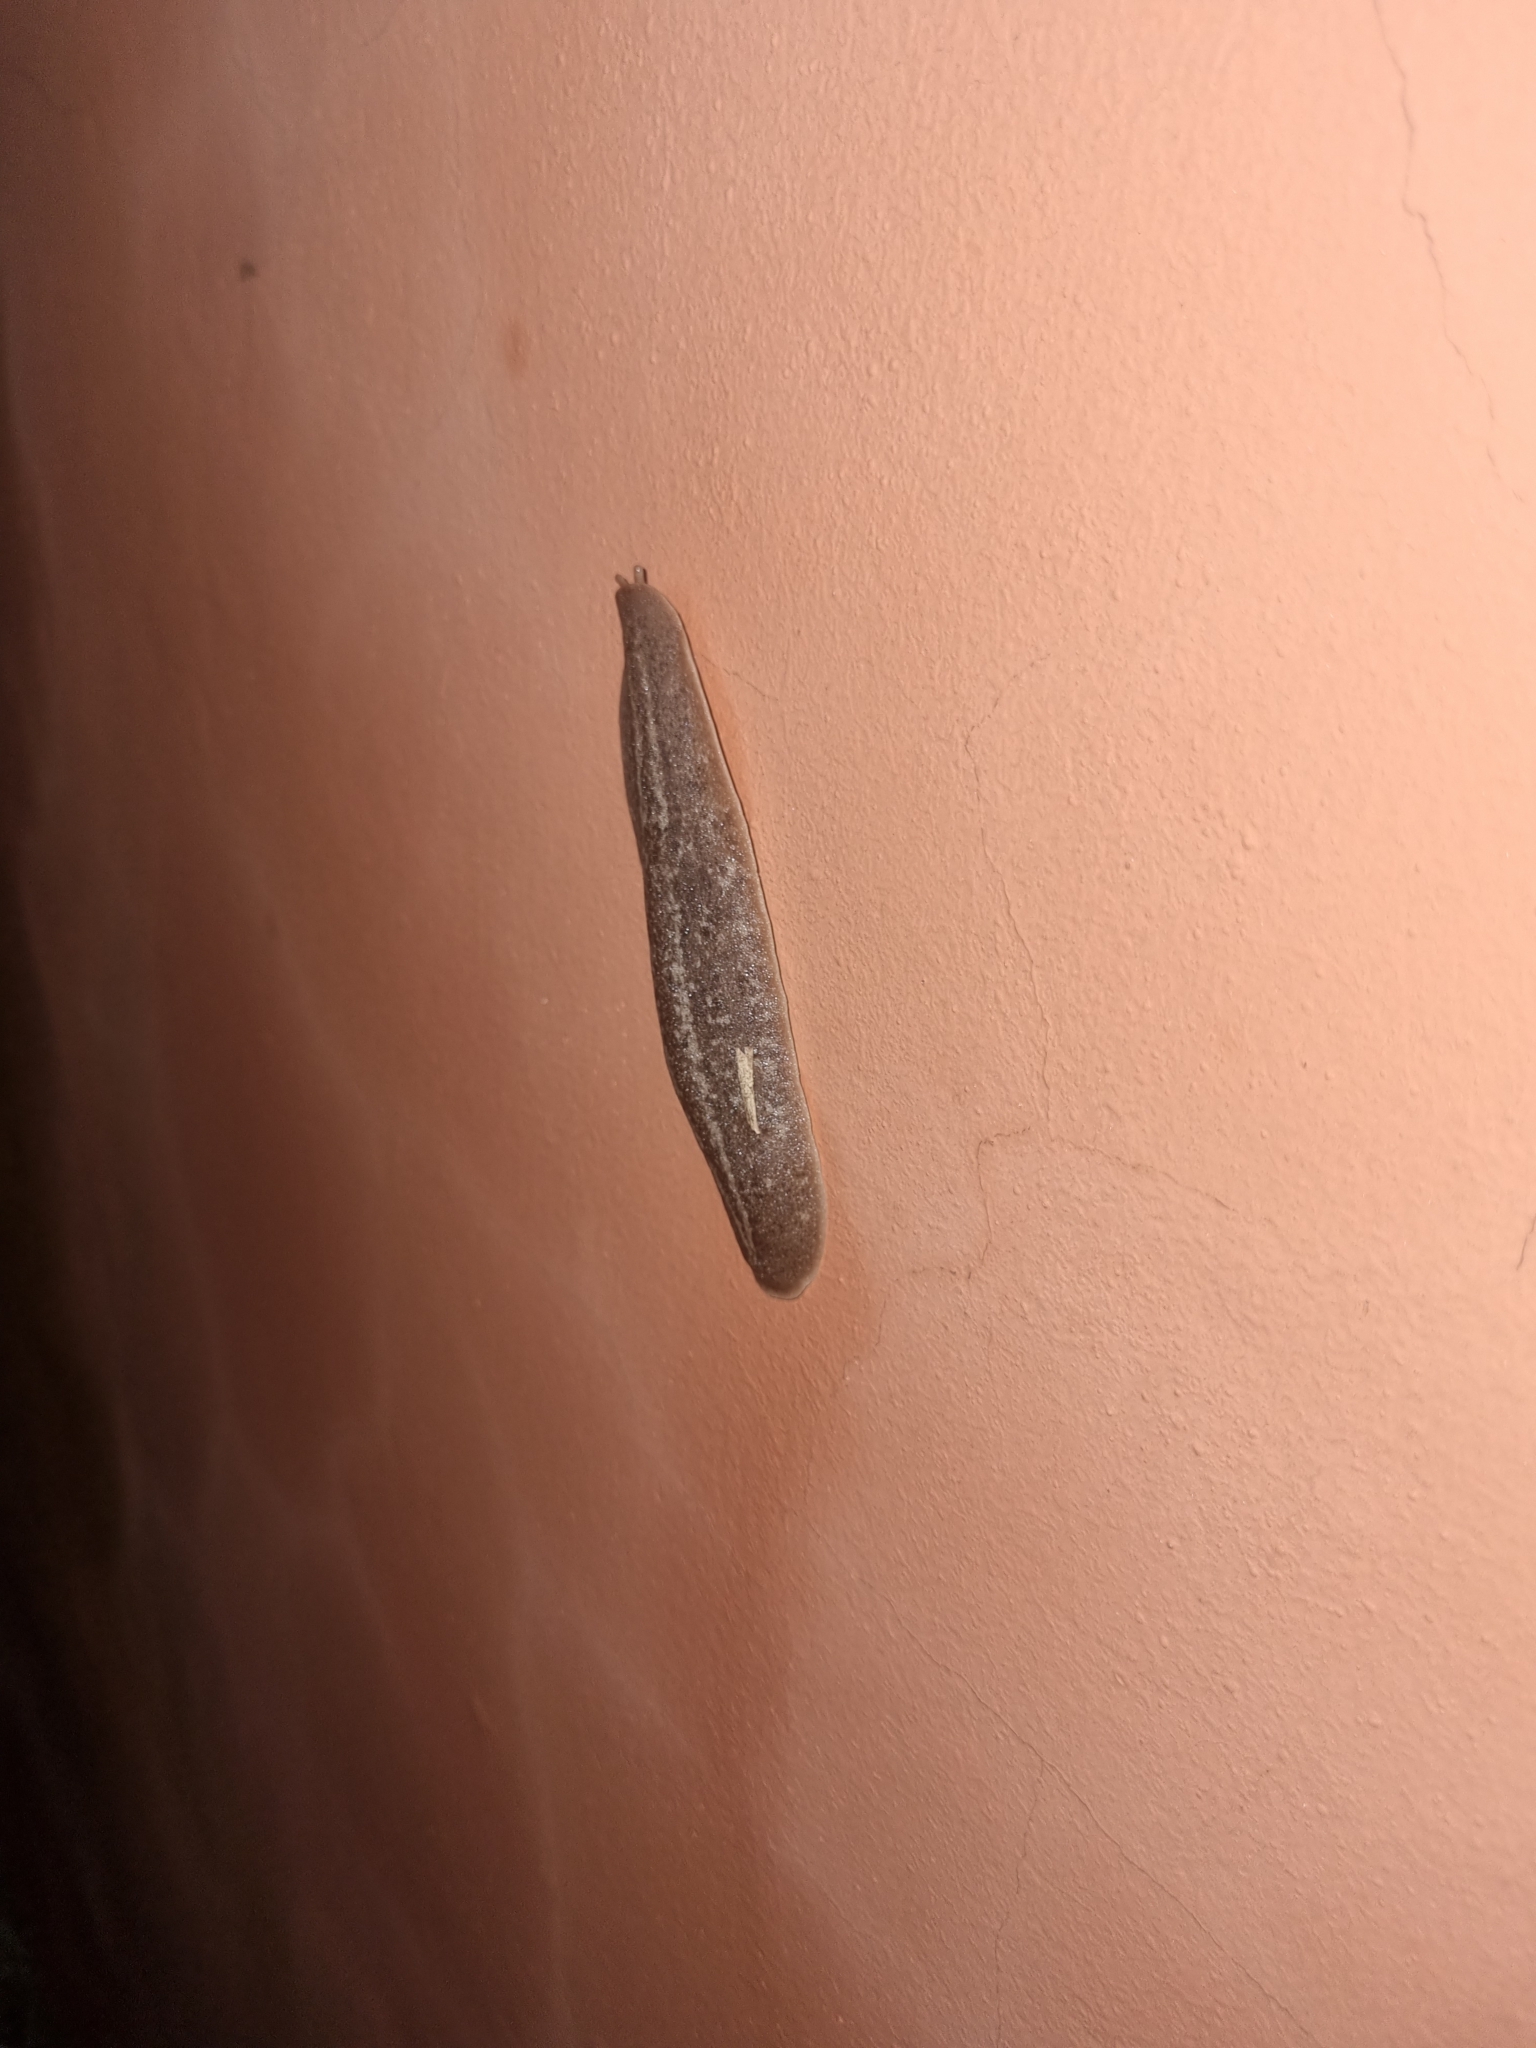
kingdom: Animalia
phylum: Mollusca
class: Gastropoda
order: Systellommatophora
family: Veronicellidae
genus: Phyllocaulis
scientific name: Phyllocaulis soleiformis
